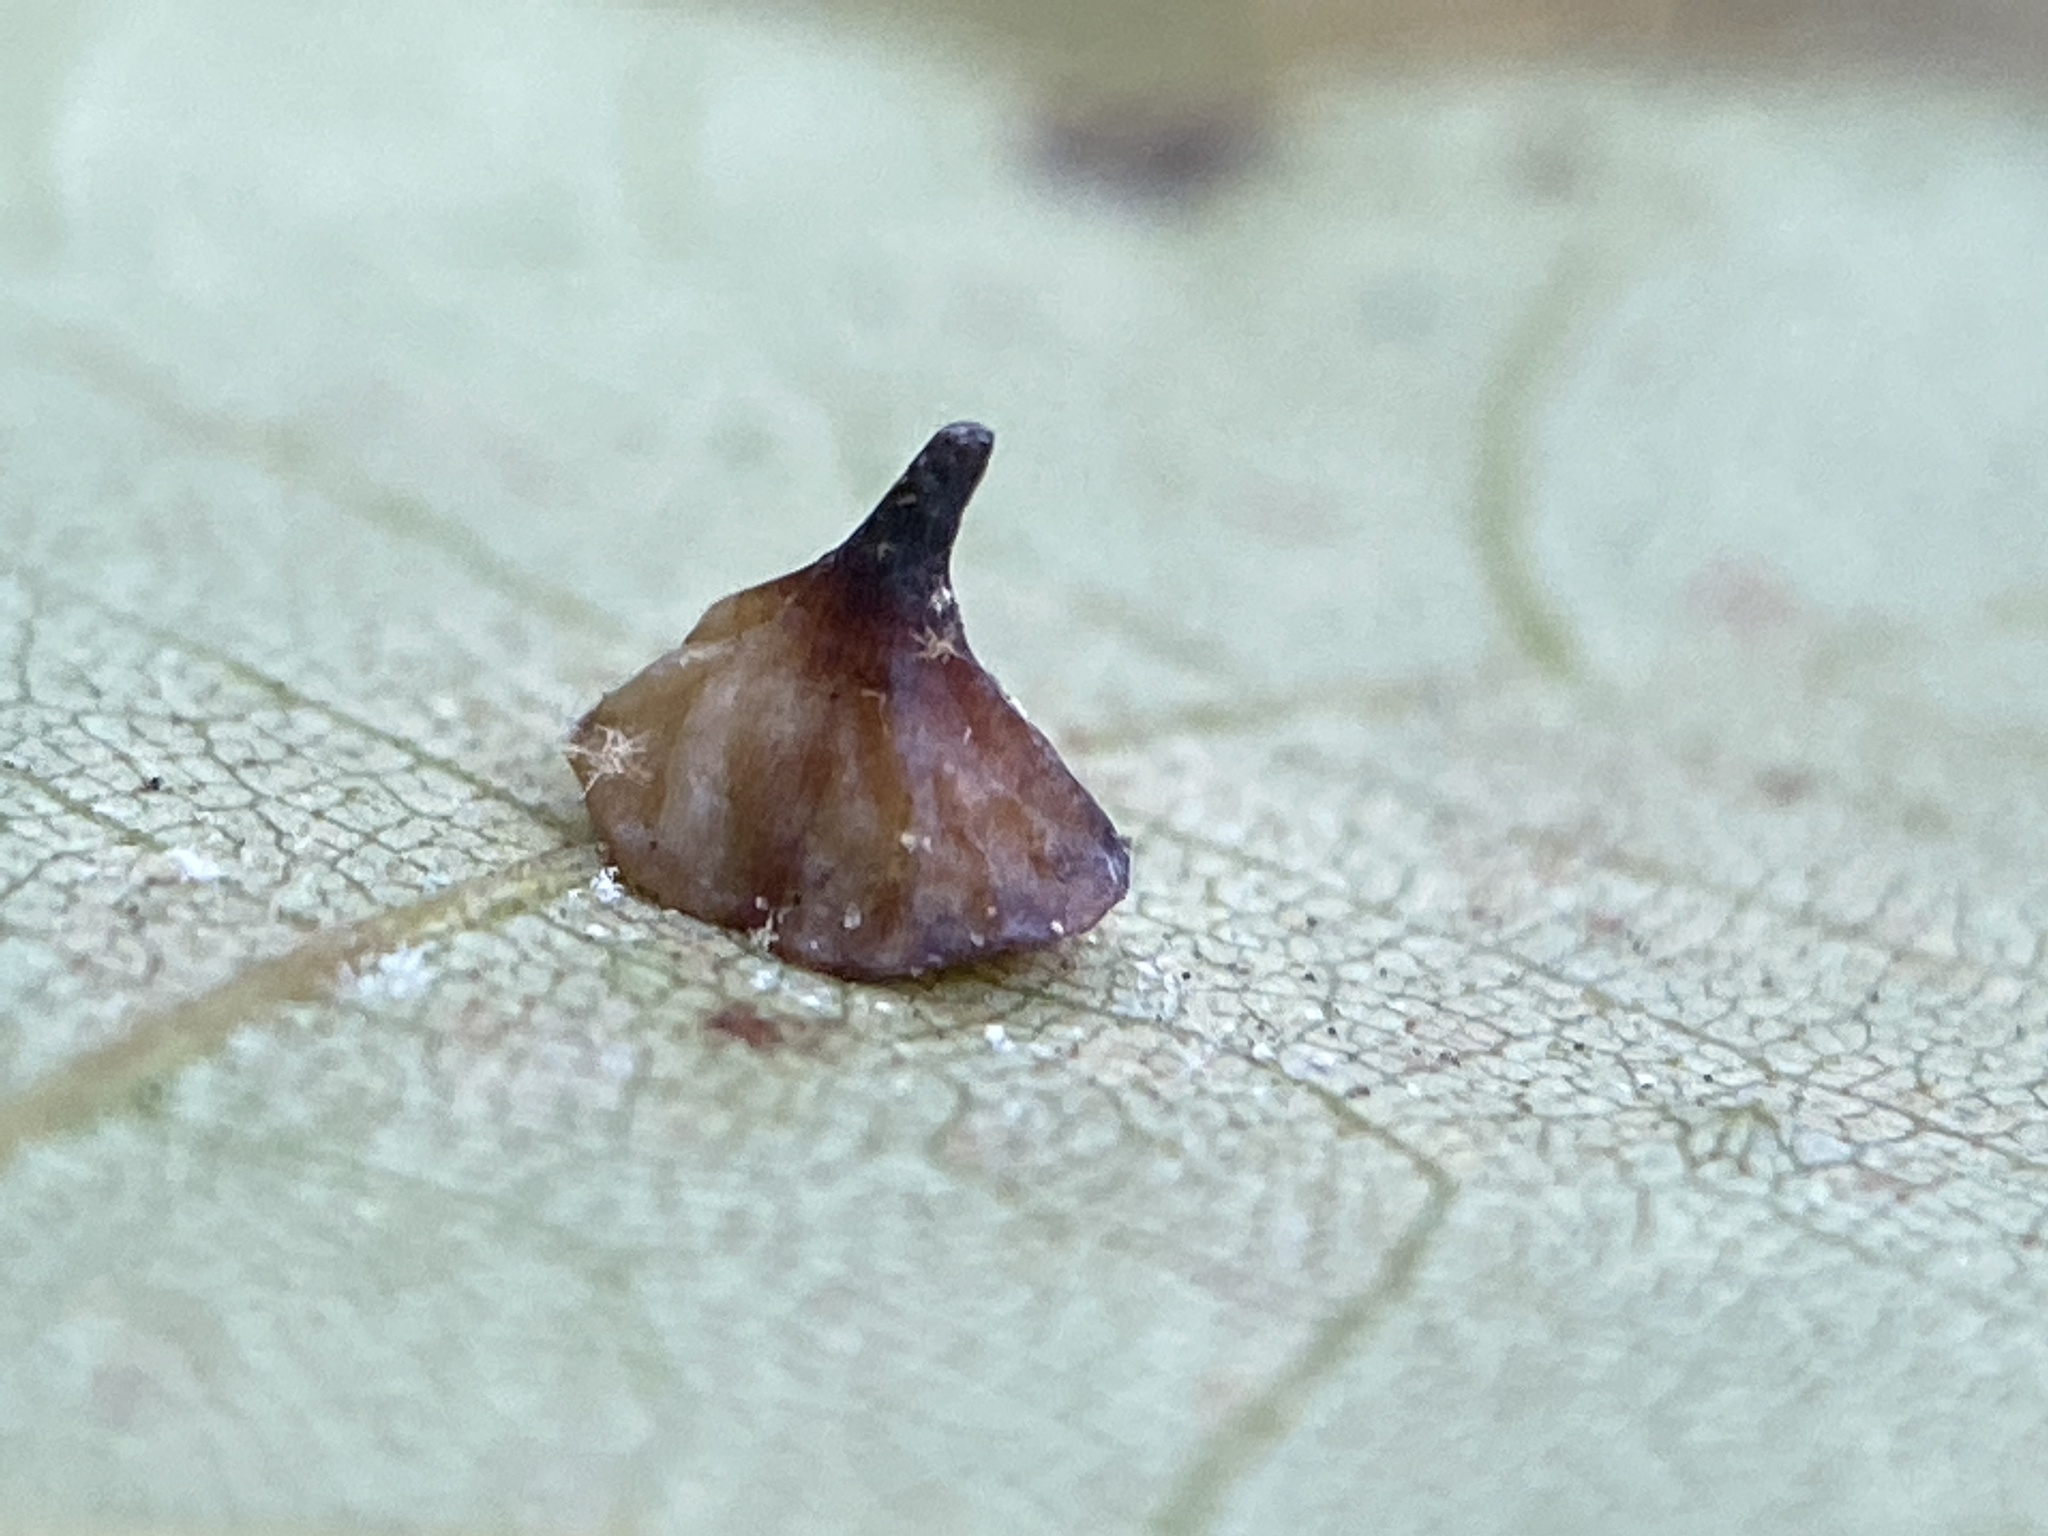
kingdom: Animalia
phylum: Arthropoda
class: Insecta
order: Diptera
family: Cecidomyiidae
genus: Caryomyia
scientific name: Caryomyia sanguinolenta
